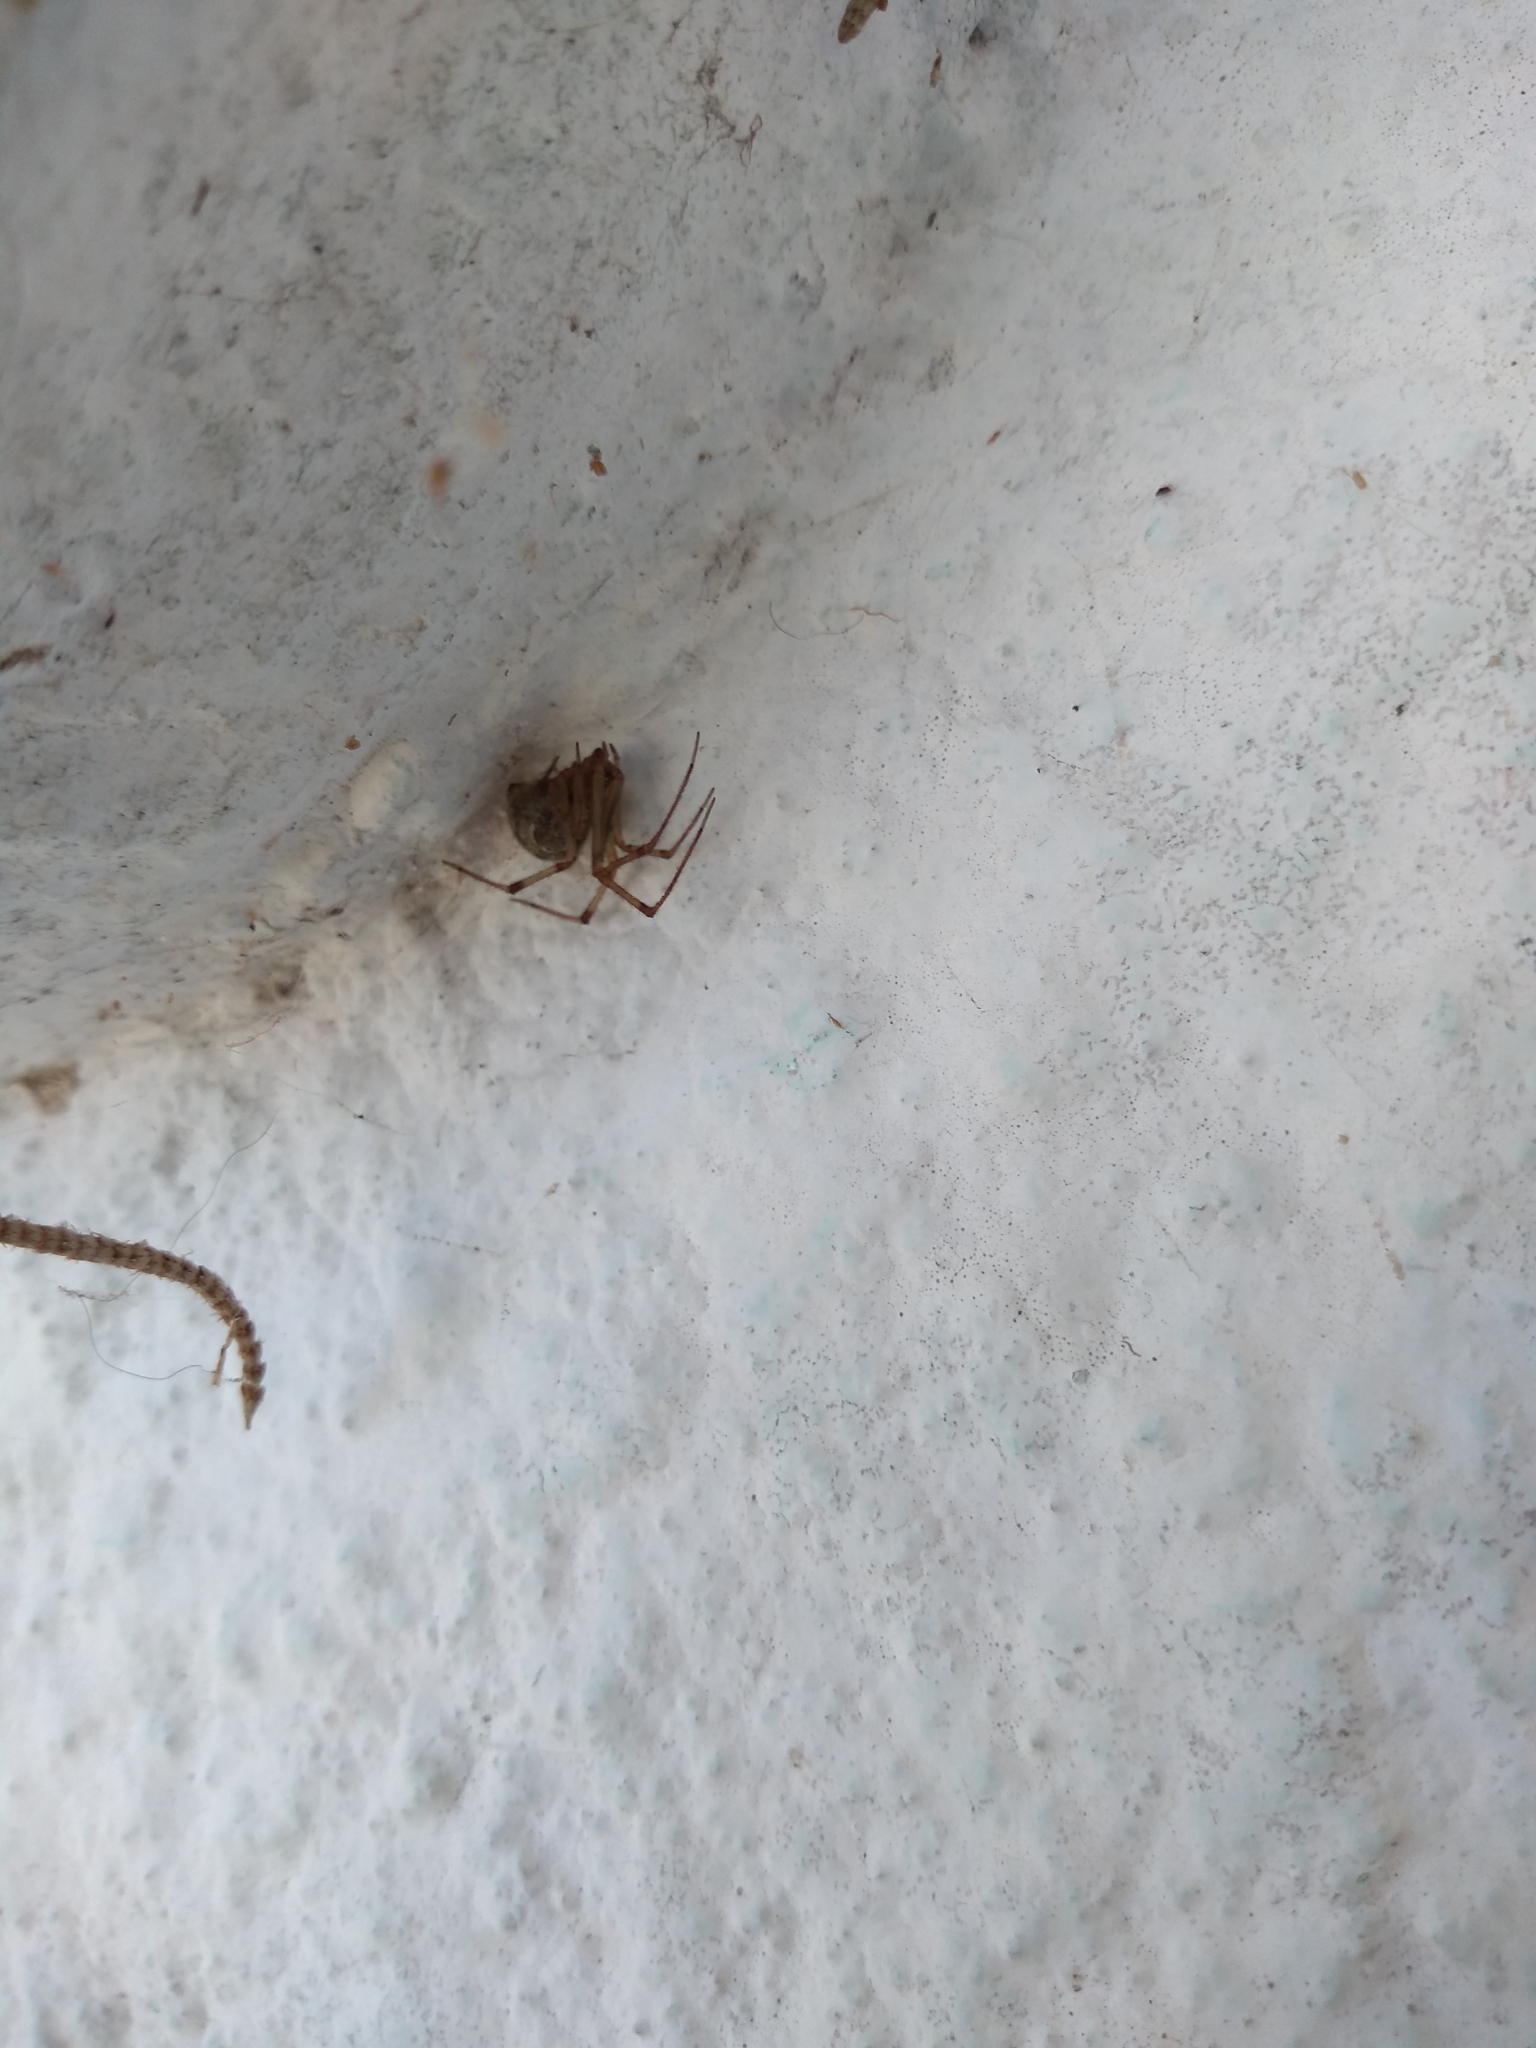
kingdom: Animalia
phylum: Arthropoda
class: Arachnida
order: Araneae
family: Theridiidae
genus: Parasteatoda
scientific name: Parasteatoda tepidariorum
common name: Common house spider
